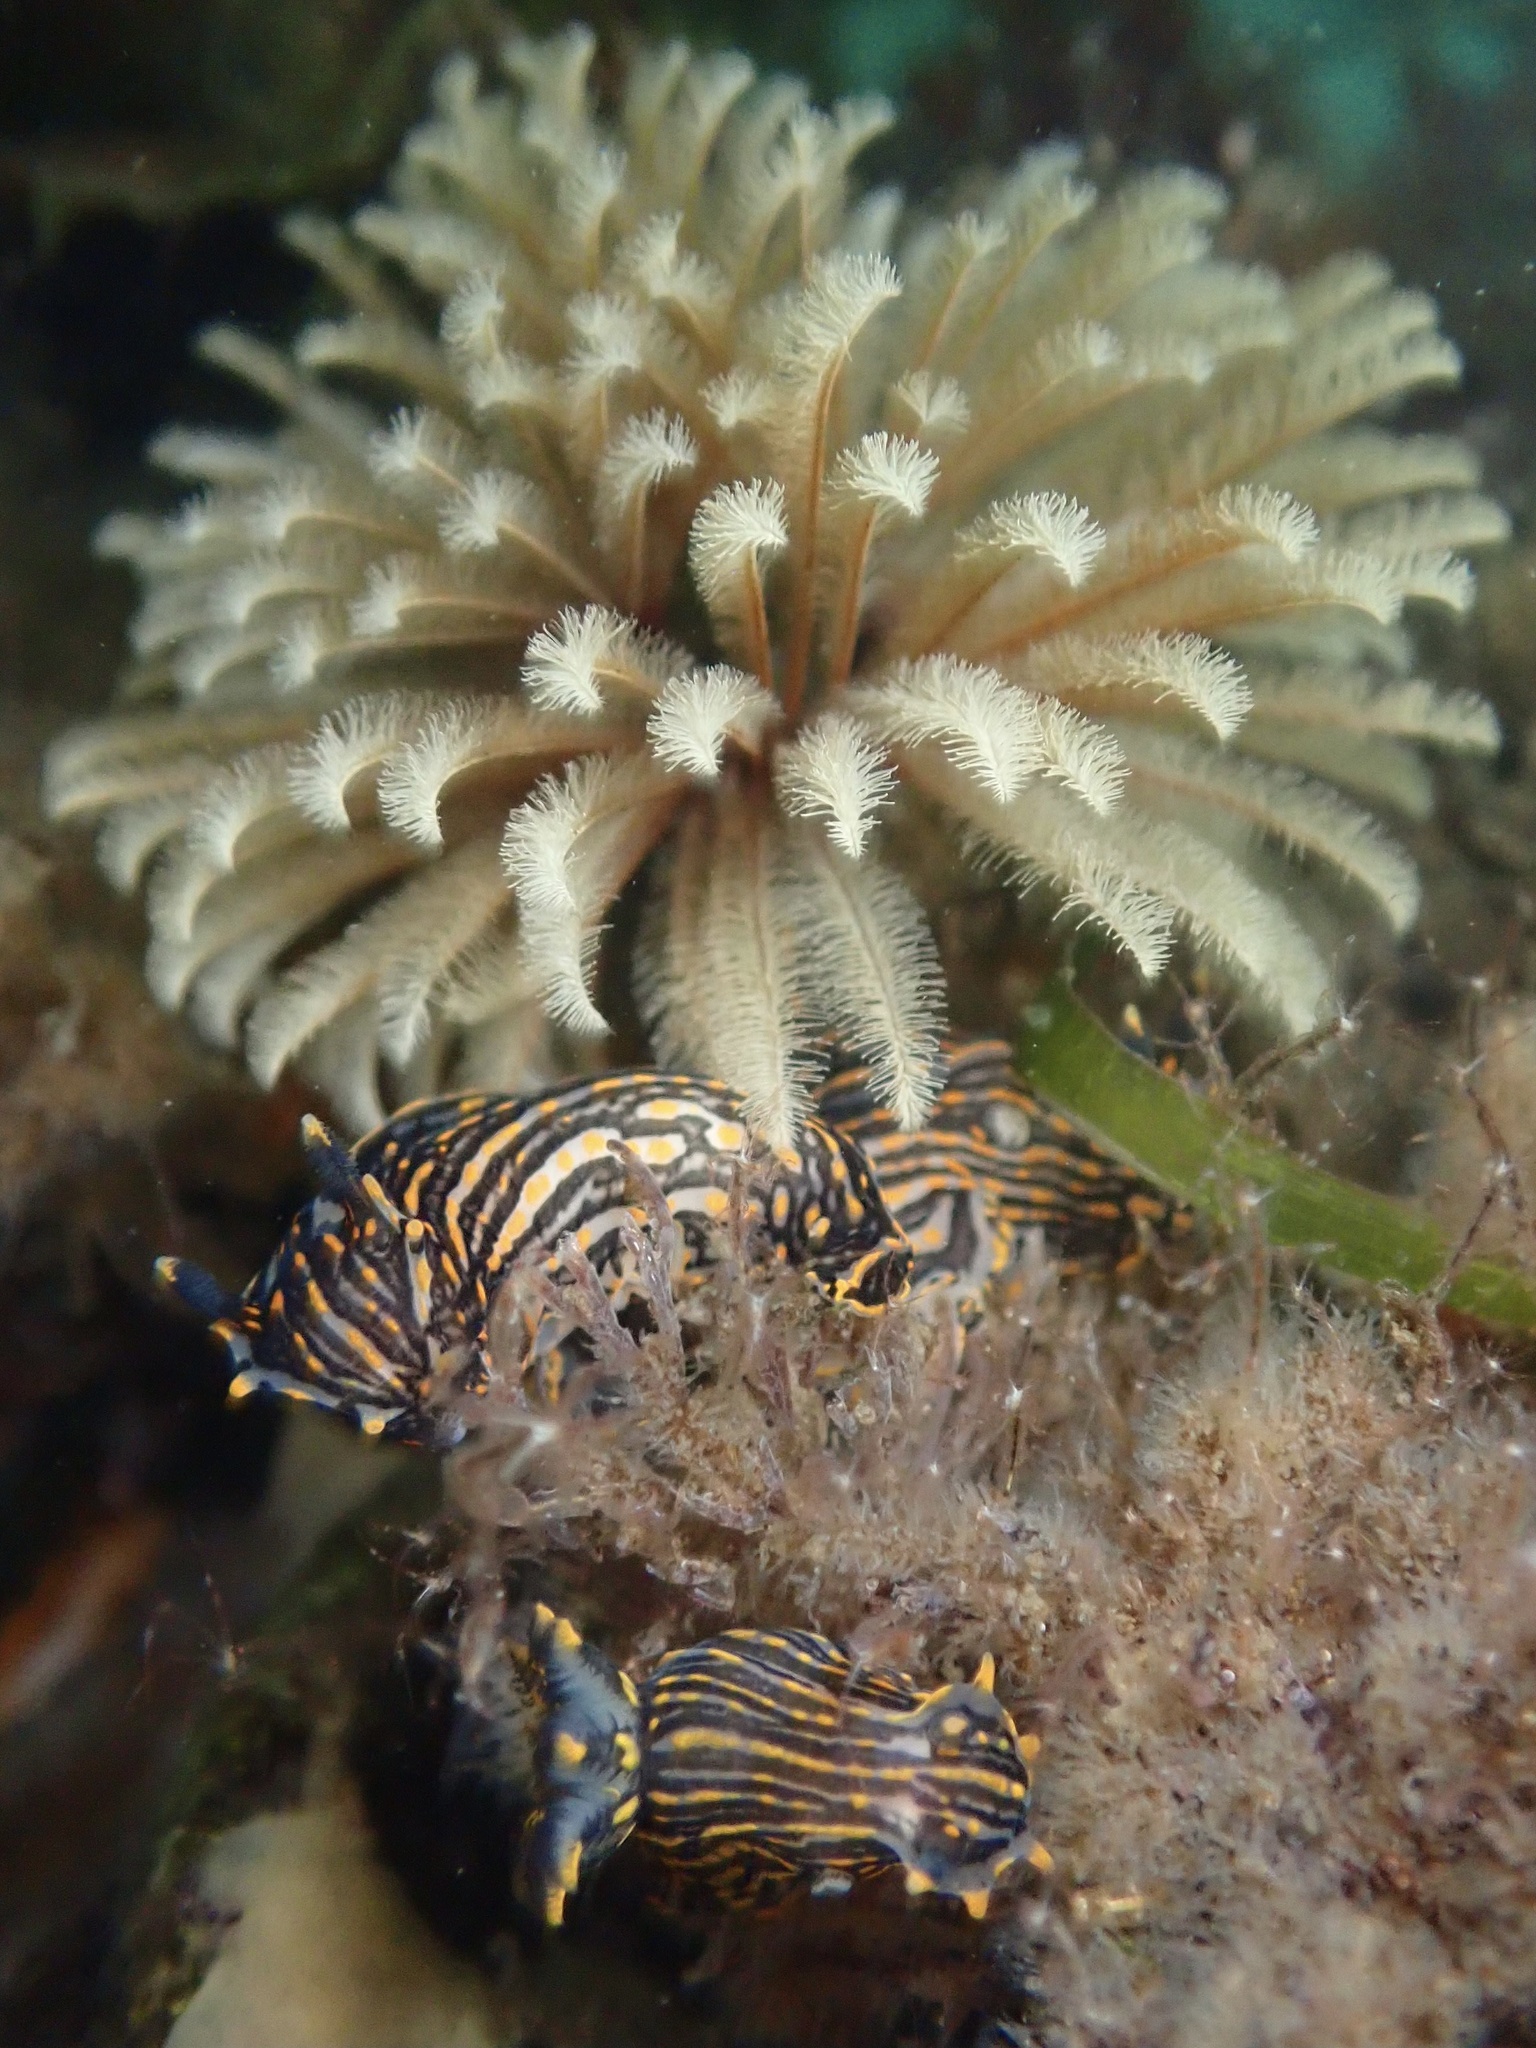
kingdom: Animalia
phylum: Annelida
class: Polychaeta
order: Sabellida
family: Sabellidae
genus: Eudistylia
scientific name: Eudistylia polymorpha
